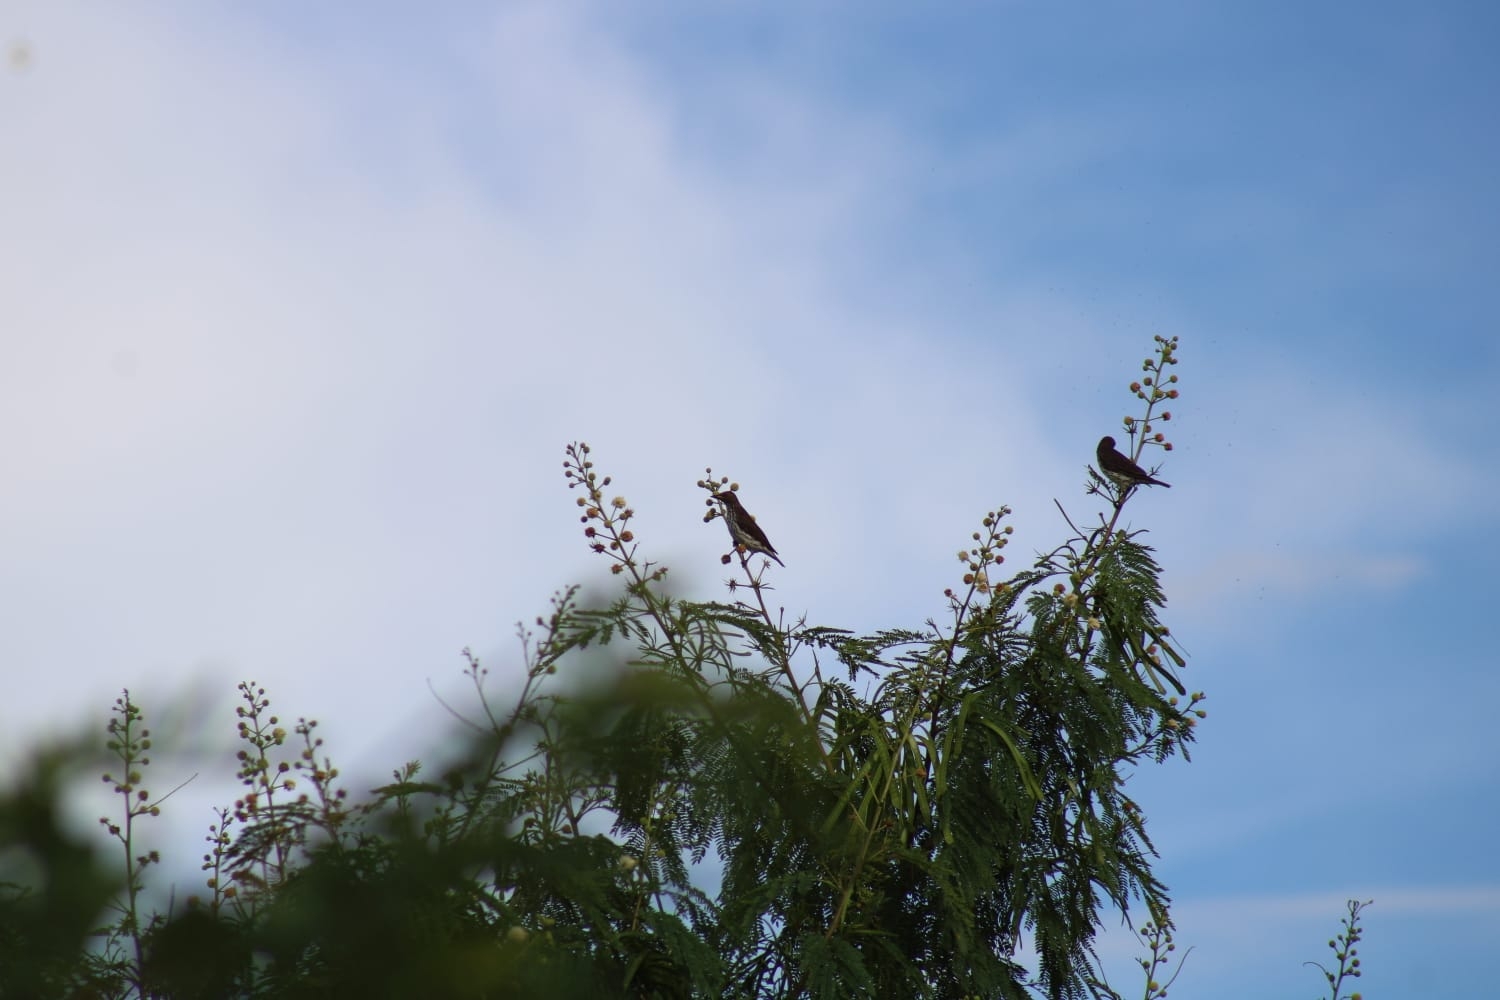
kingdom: Animalia
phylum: Chordata
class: Aves
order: Passeriformes
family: Sturnidae
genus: Cinnyricinclus
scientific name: Cinnyricinclus leucogaster
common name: Violet-backed starling
